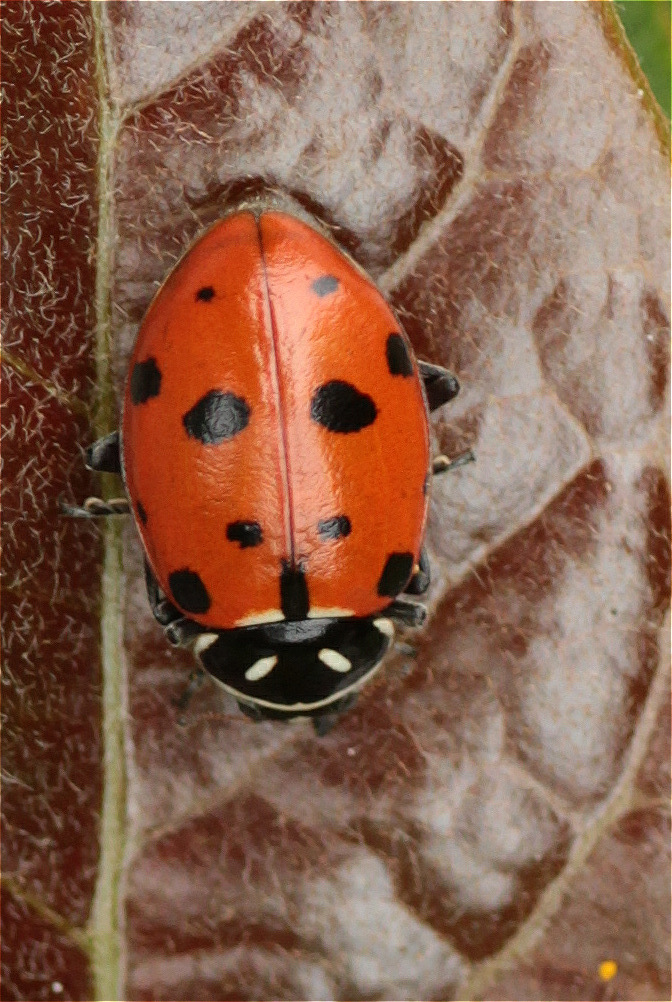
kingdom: Animalia
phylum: Arthropoda
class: Insecta
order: Coleoptera
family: Coccinellidae
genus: Hippodamia
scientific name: Hippodamia convergens
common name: Convergent lady beetle
